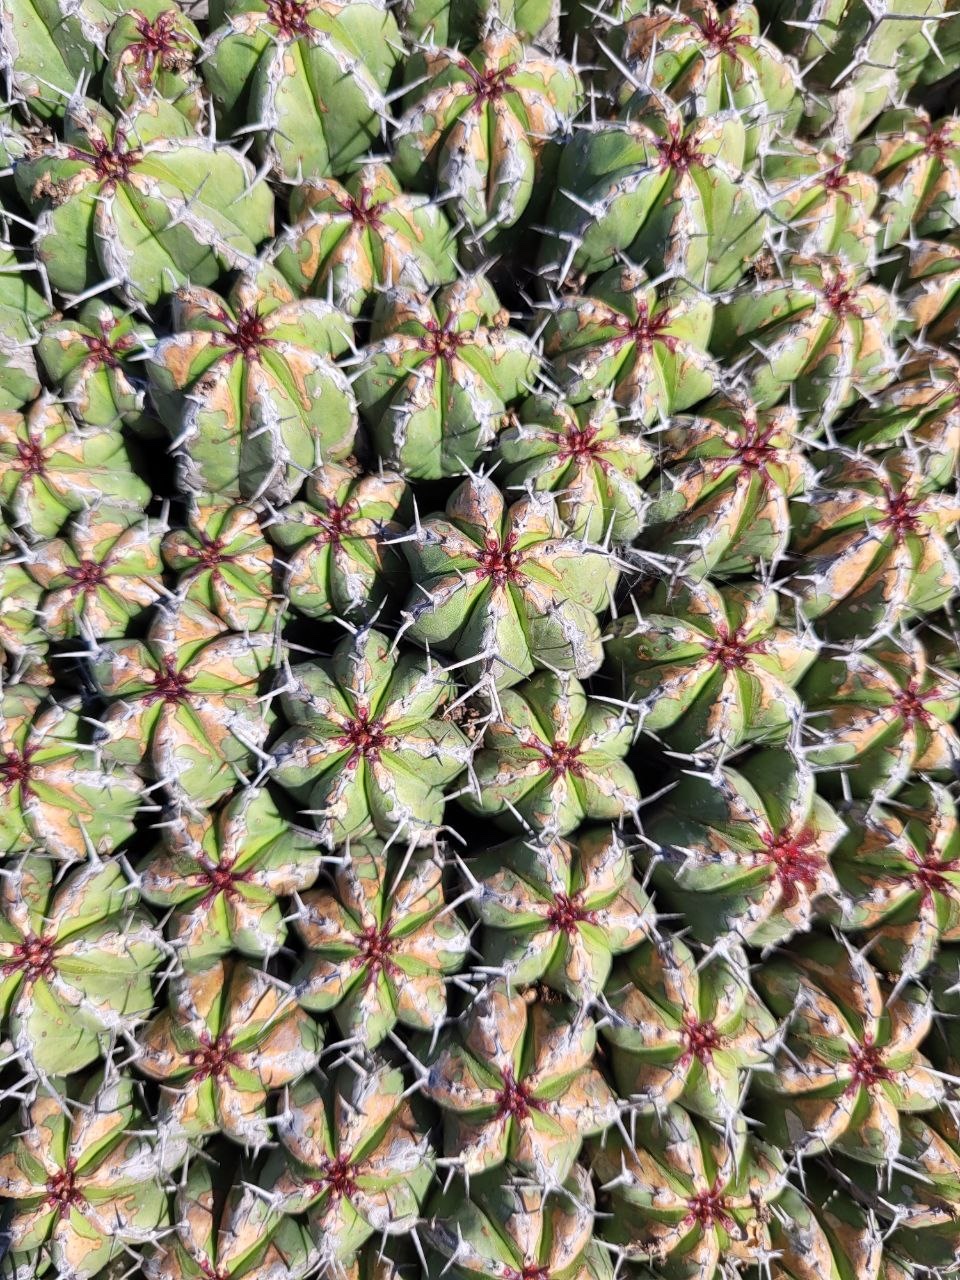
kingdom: Plantae
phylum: Tracheophyta
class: Magnoliopsida
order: Malpighiales
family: Euphorbiaceae
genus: Euphorbia
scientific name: Euphorbia officinarum
